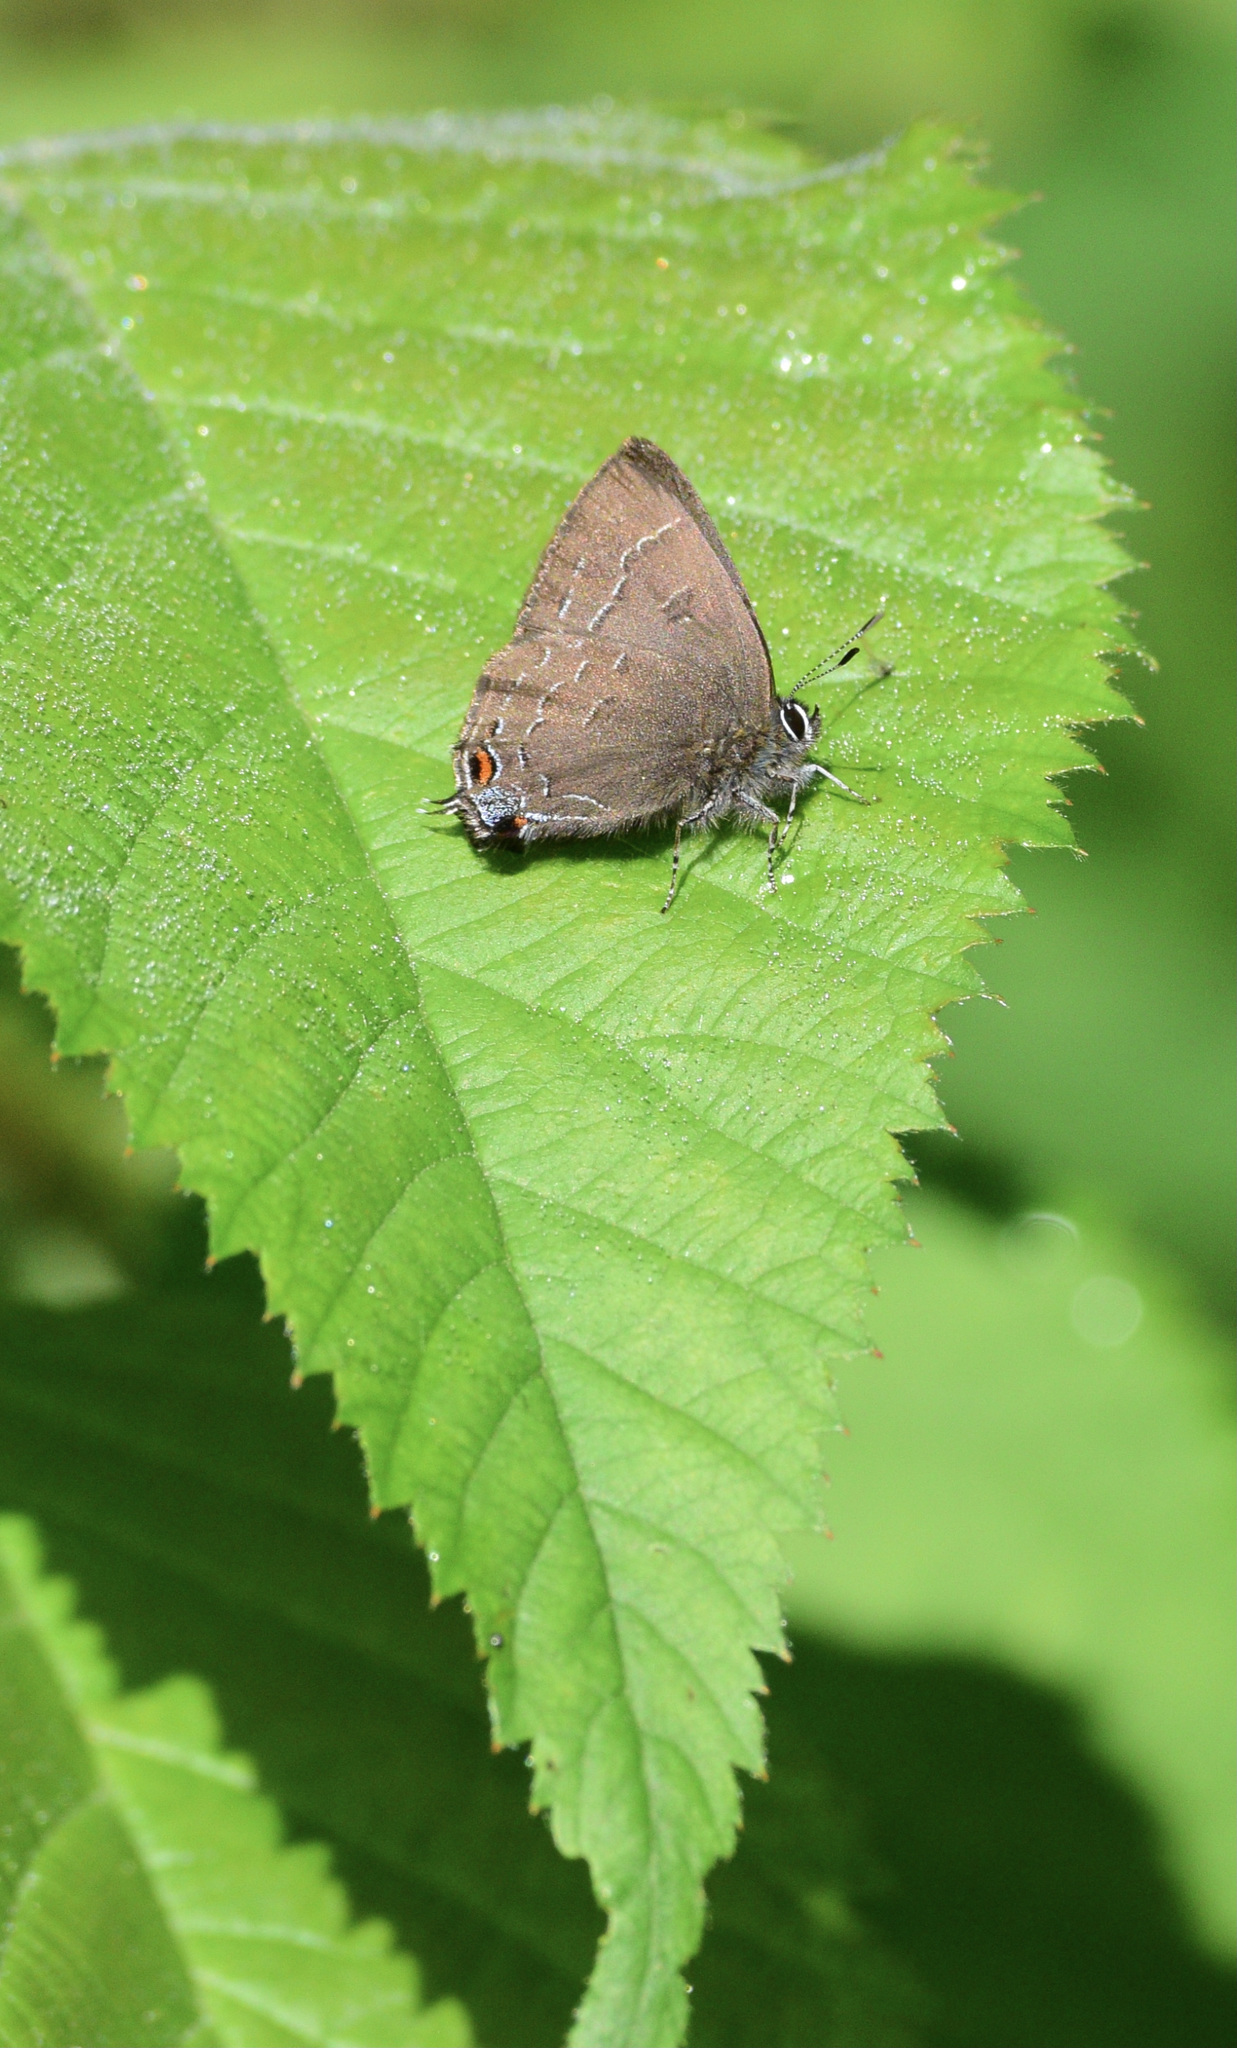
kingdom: Animalia
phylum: Arthropoda
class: Insecta
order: Lepidoptera
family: Lycaenidae
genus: Satyrium
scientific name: Satyrium calanus
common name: Banded hairstreak
